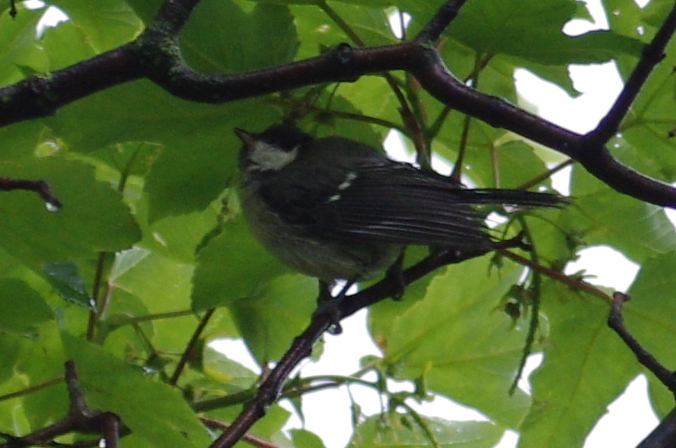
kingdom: Animalia
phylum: Chordata
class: Aves
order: Passeriformes
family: Paridae
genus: Parus
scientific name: Parus major
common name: Great tit
